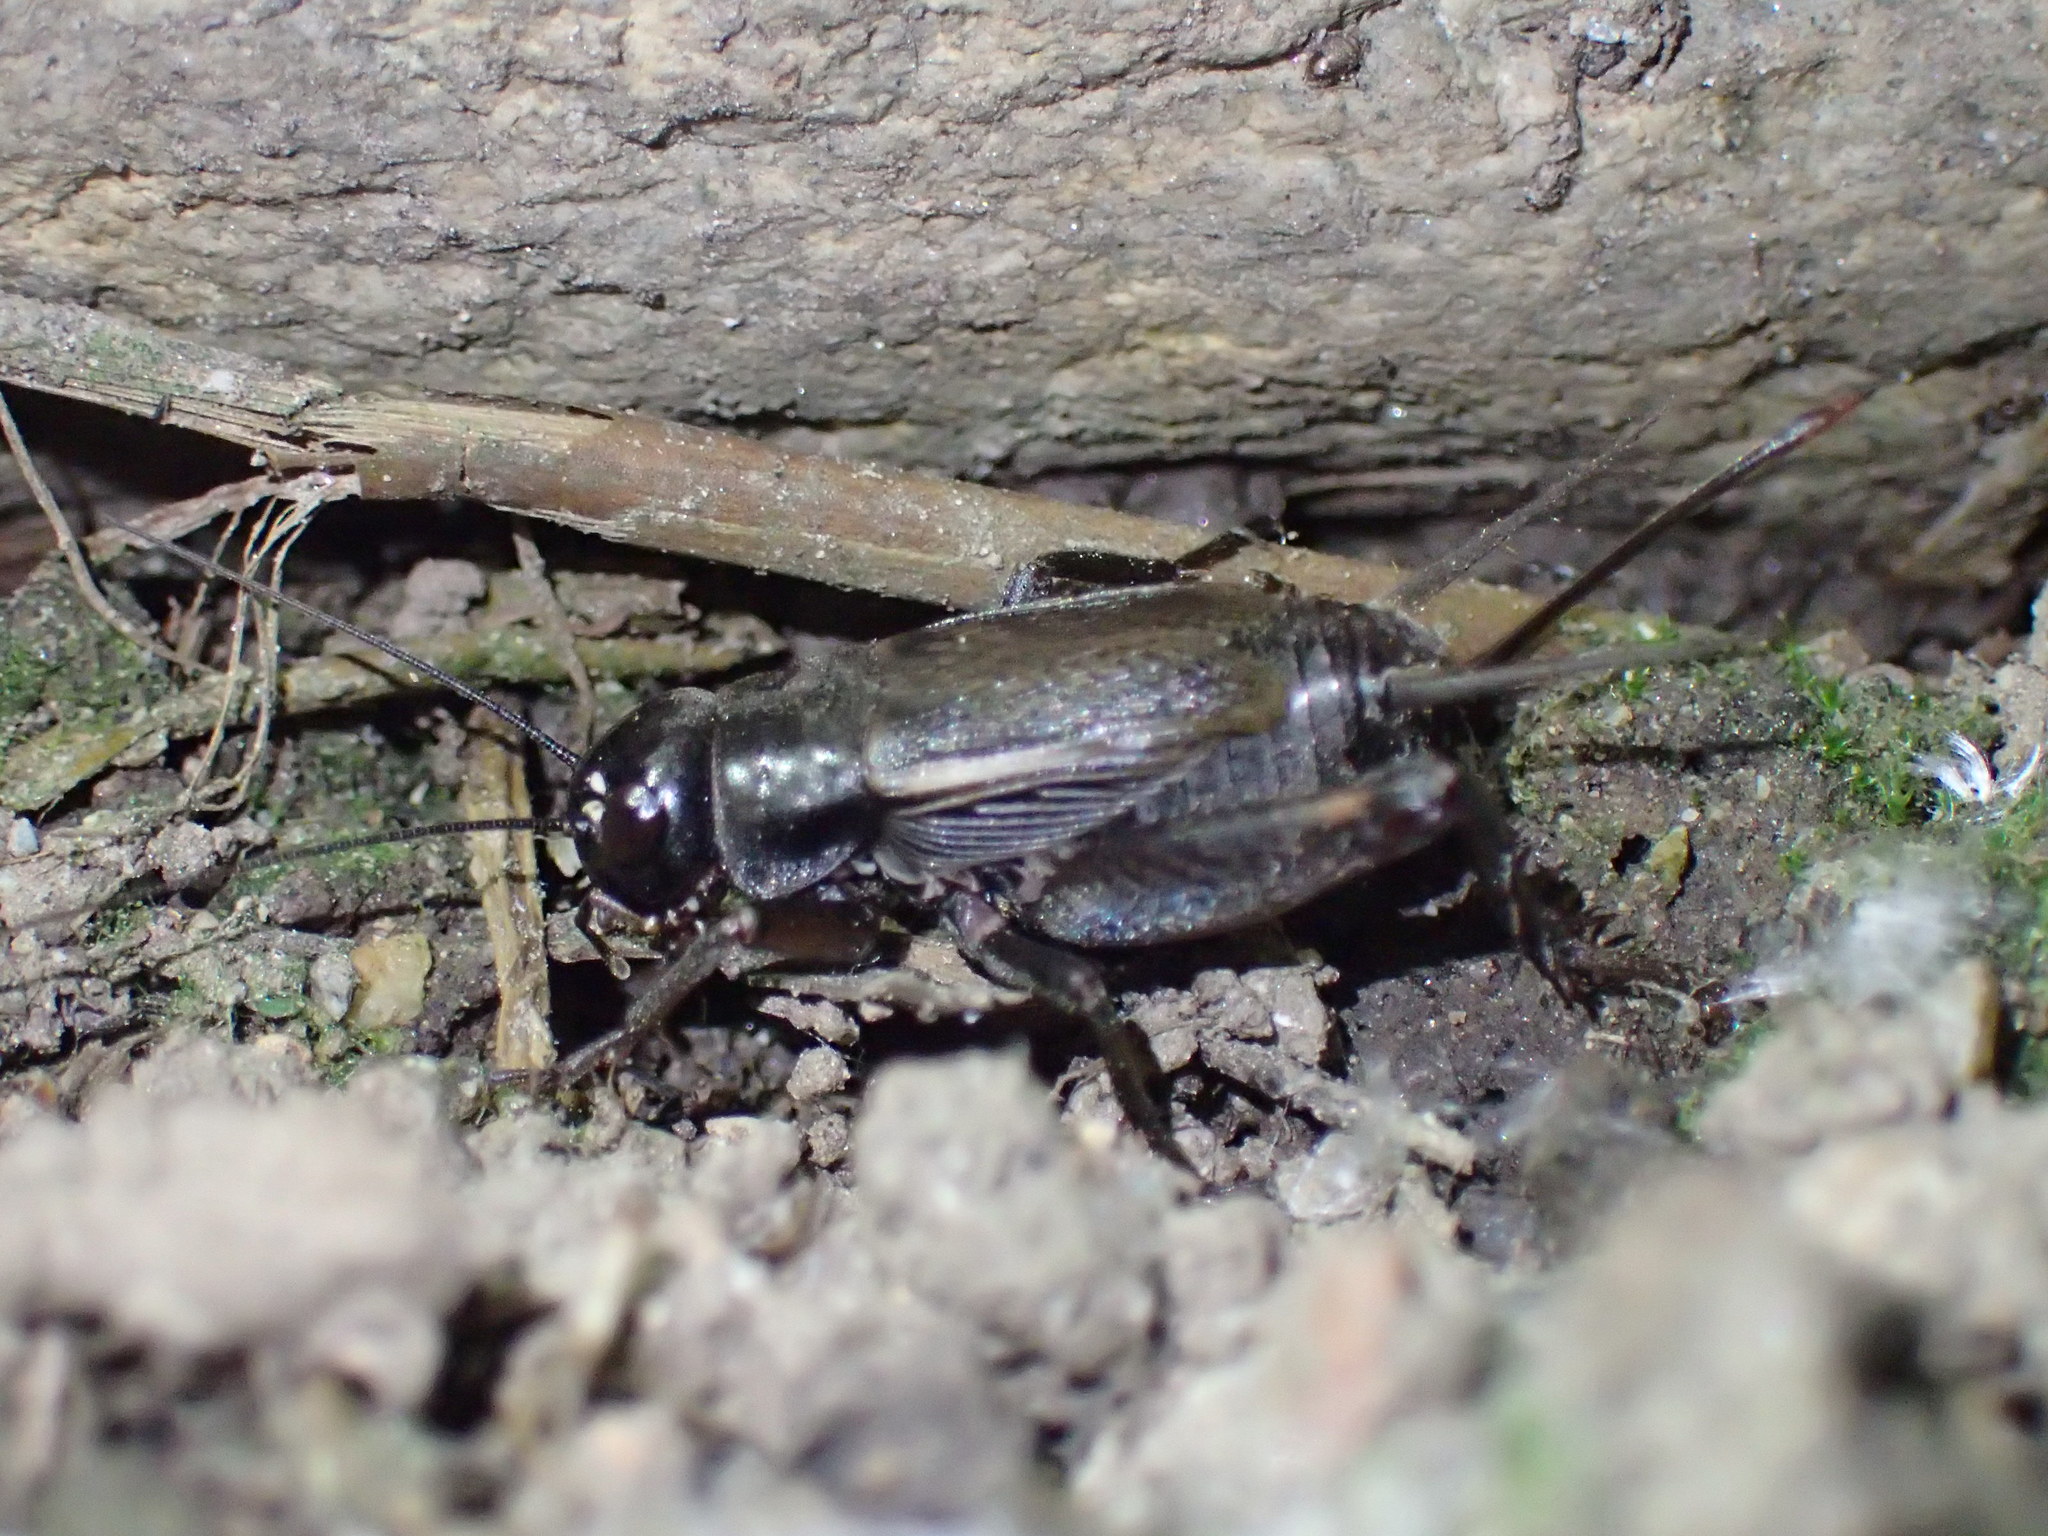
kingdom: Animalia
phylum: Arthropoda
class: Insecta
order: Orthoptera
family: Gryllidae
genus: Gryllus
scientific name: Gryllus
